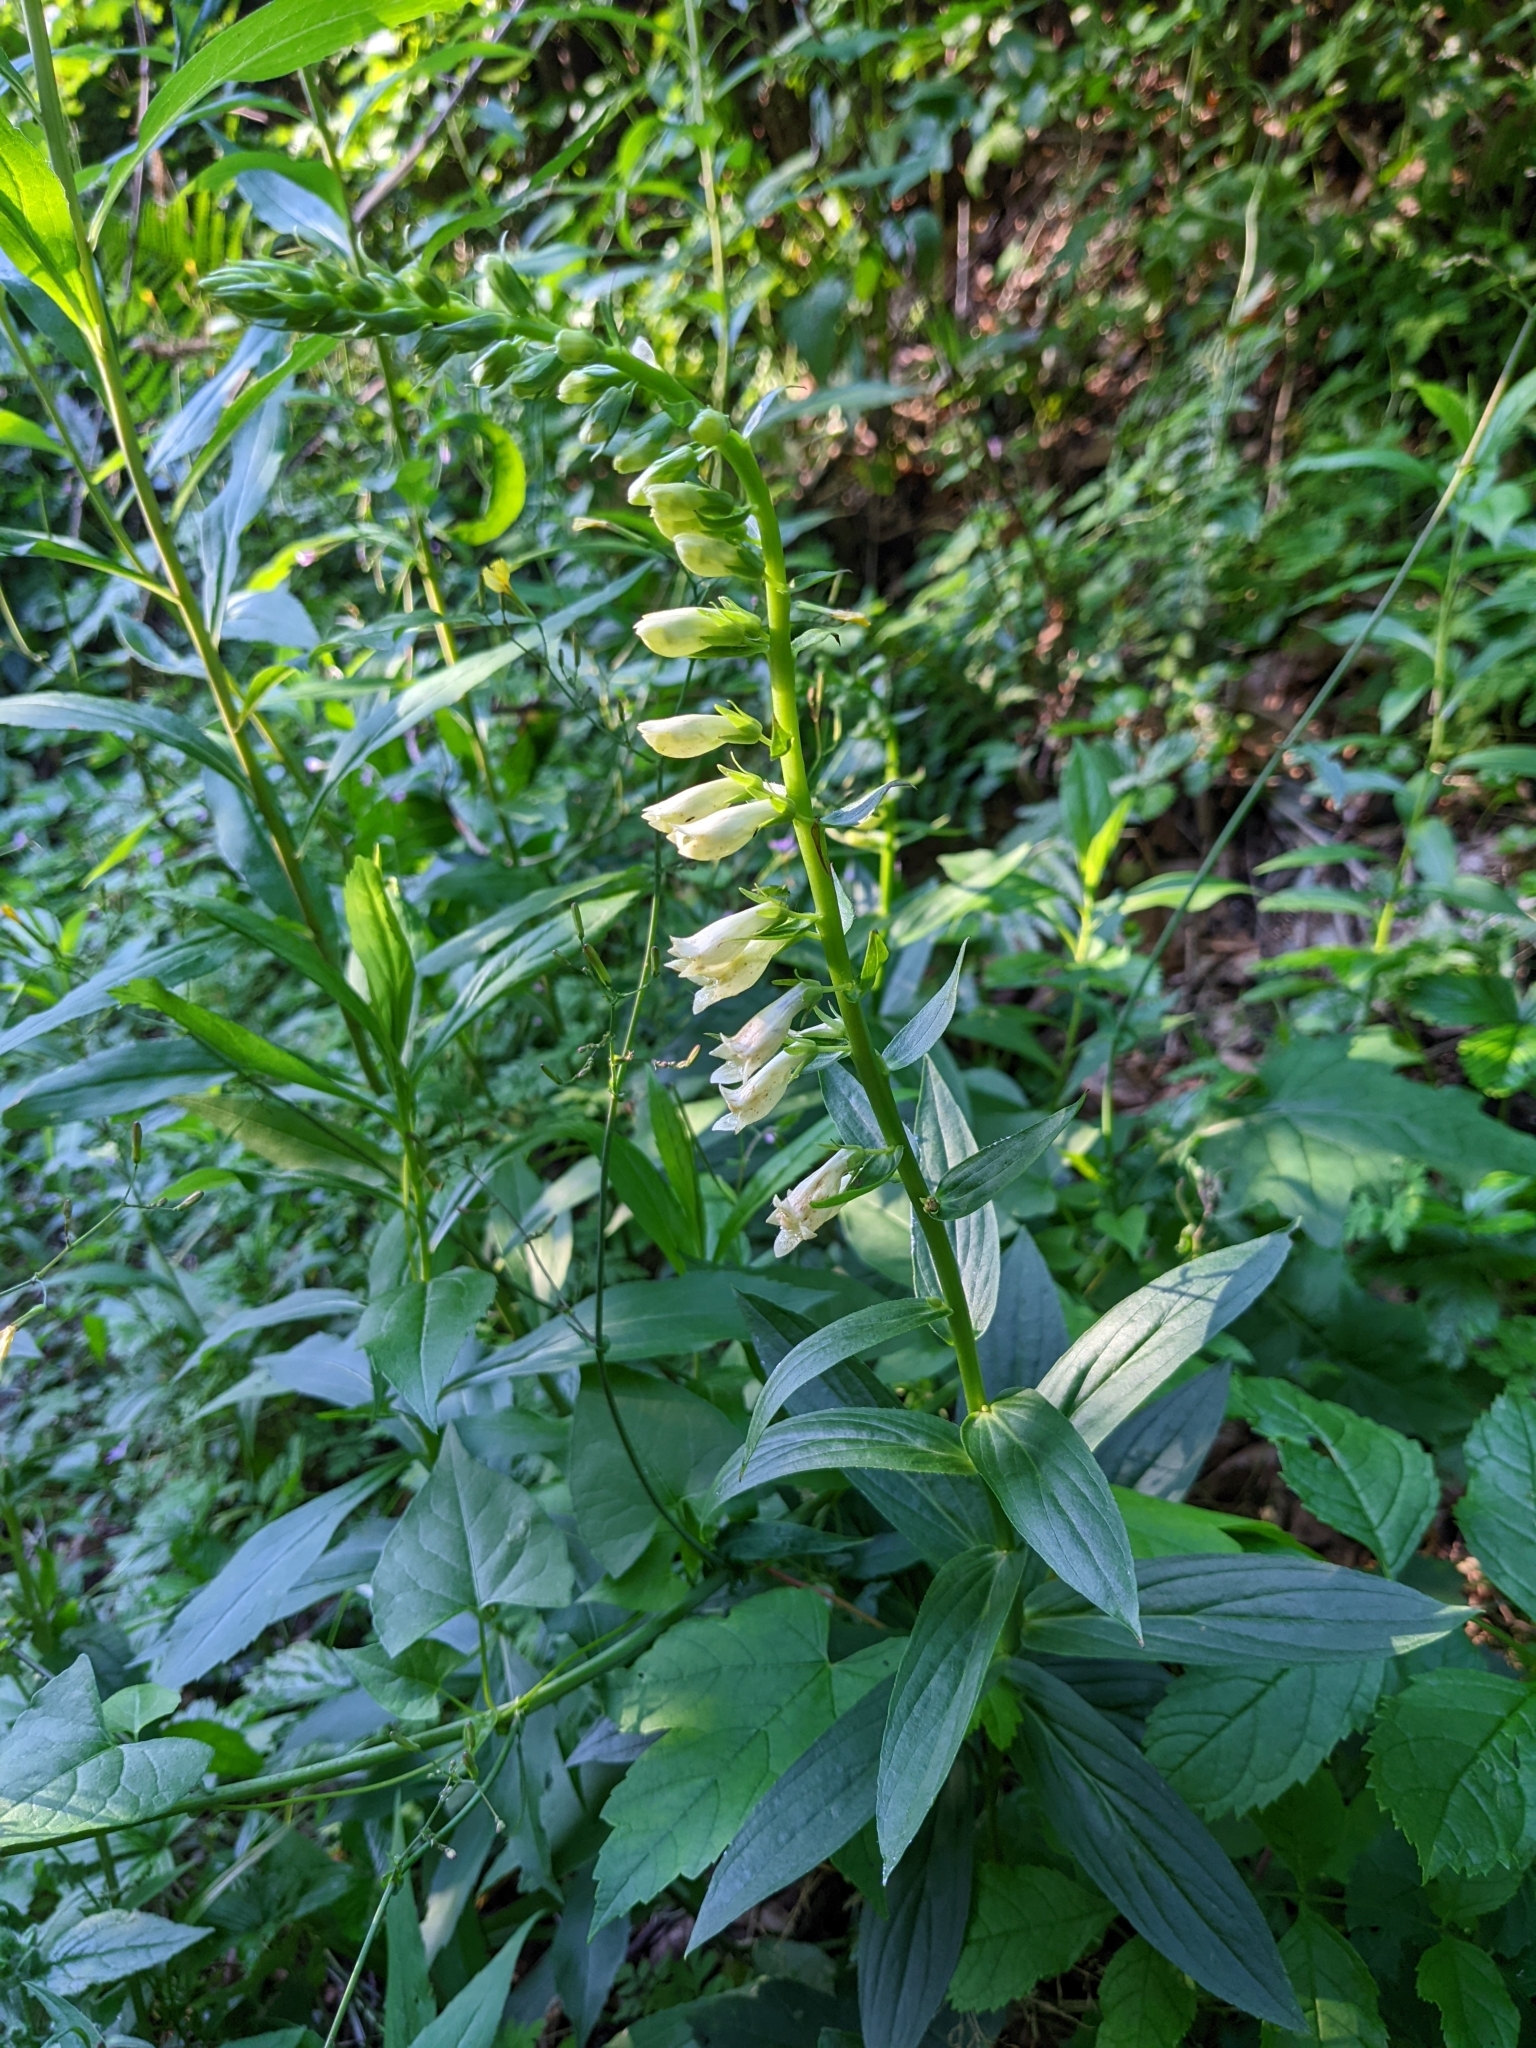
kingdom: Plantae
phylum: Tracheophyta
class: Magnoliopsida
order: Lamiales
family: Plantaginaceae
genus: Digitalis
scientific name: Digitalis lutea
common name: Straw foxglove
